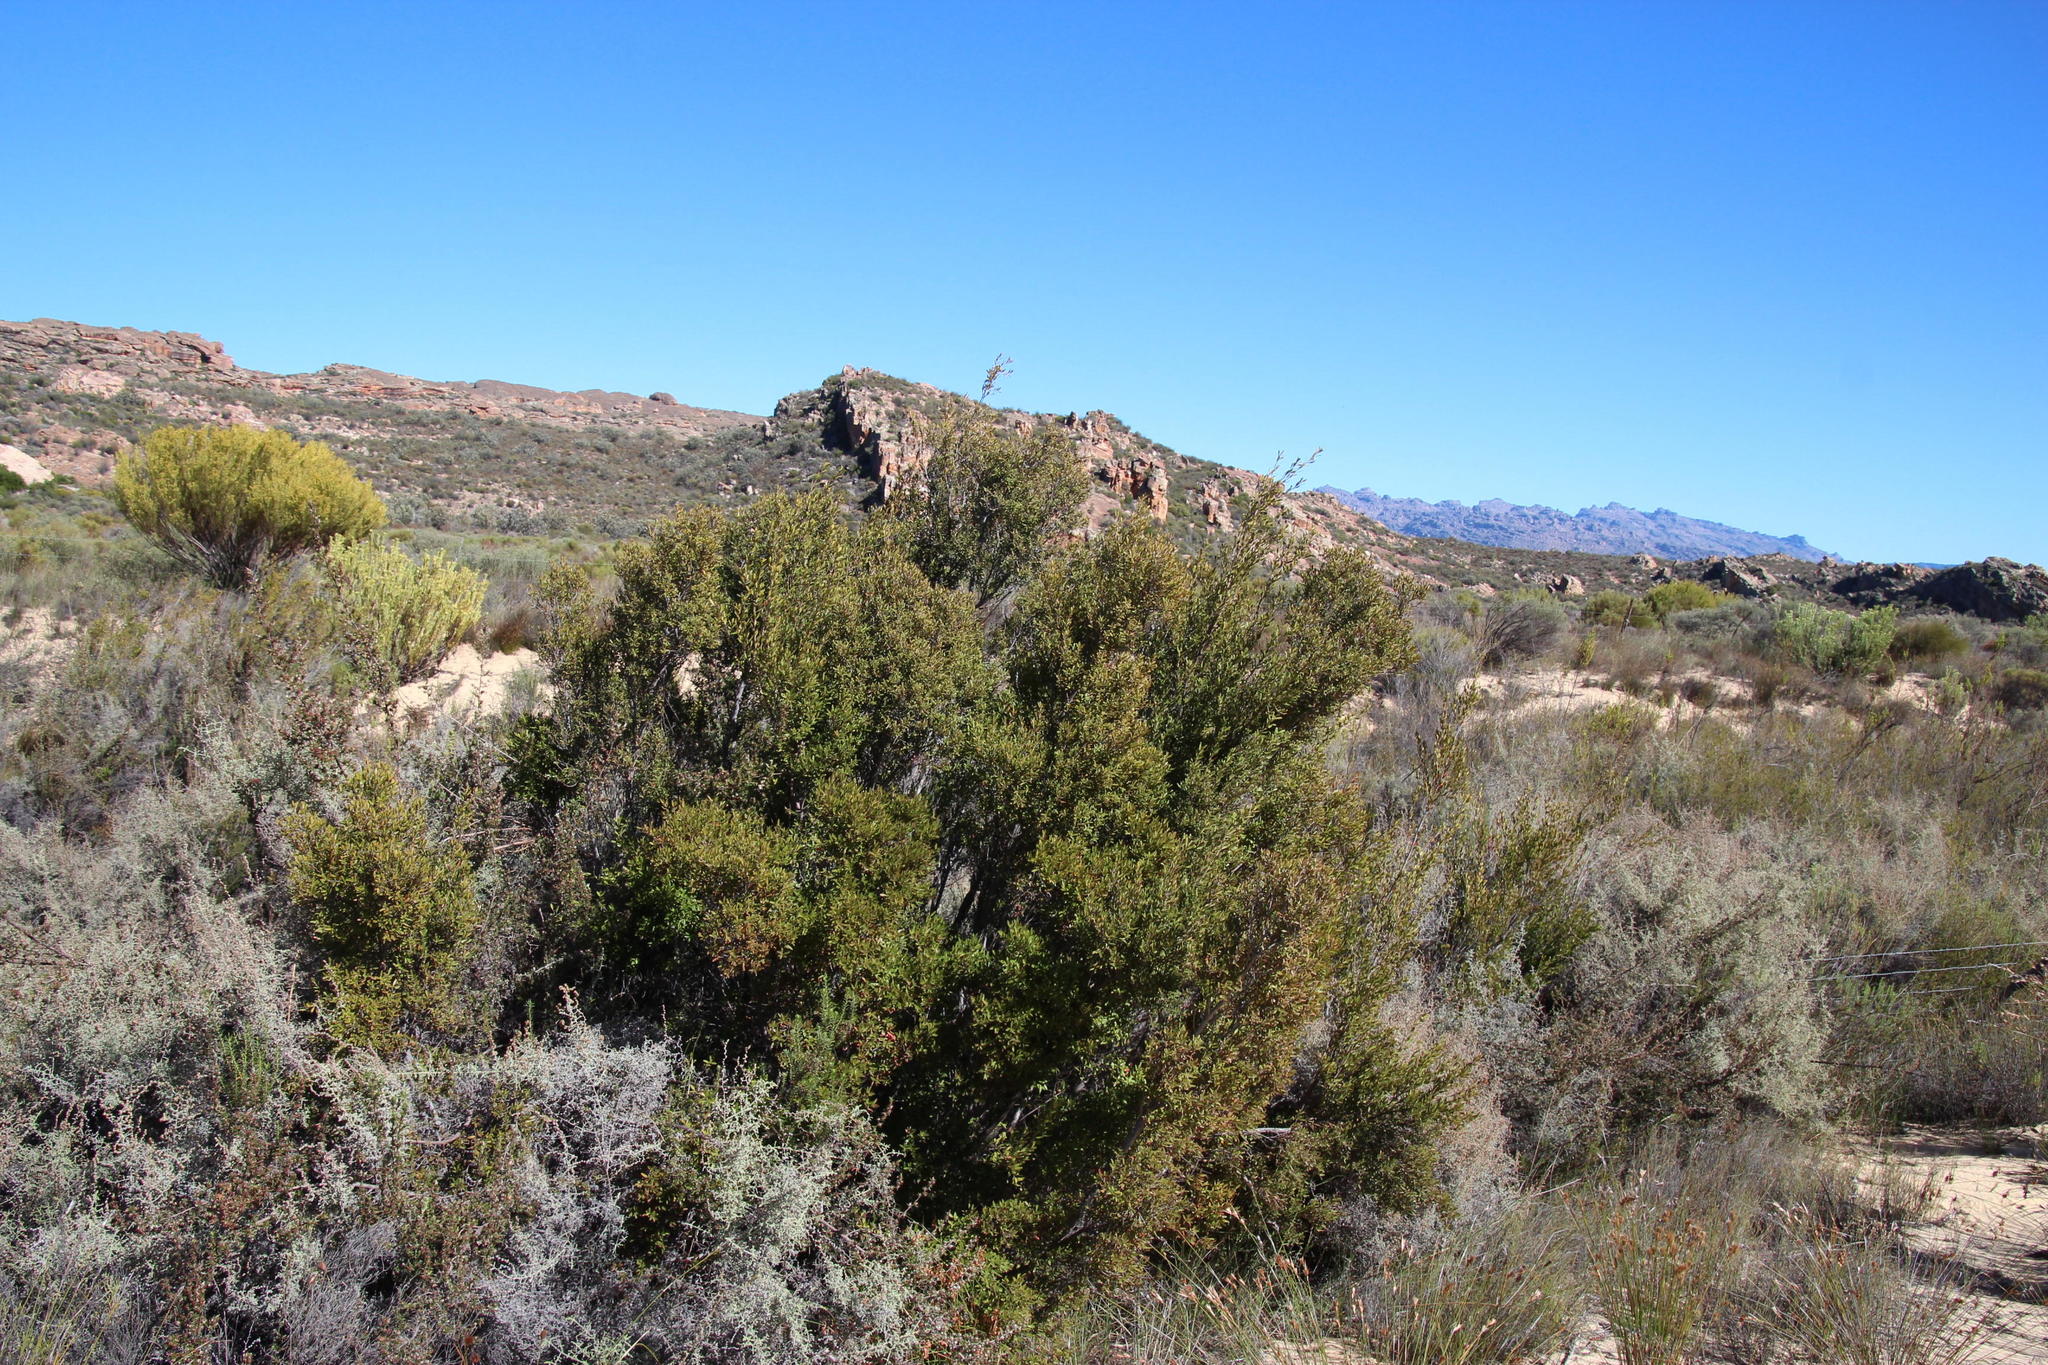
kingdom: Plantae
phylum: Tracheophyta
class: Magnoliopsida
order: Ericales
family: Ebenaceae
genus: Diospyros
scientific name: Diospyros glabra
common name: Fynbos star apple
